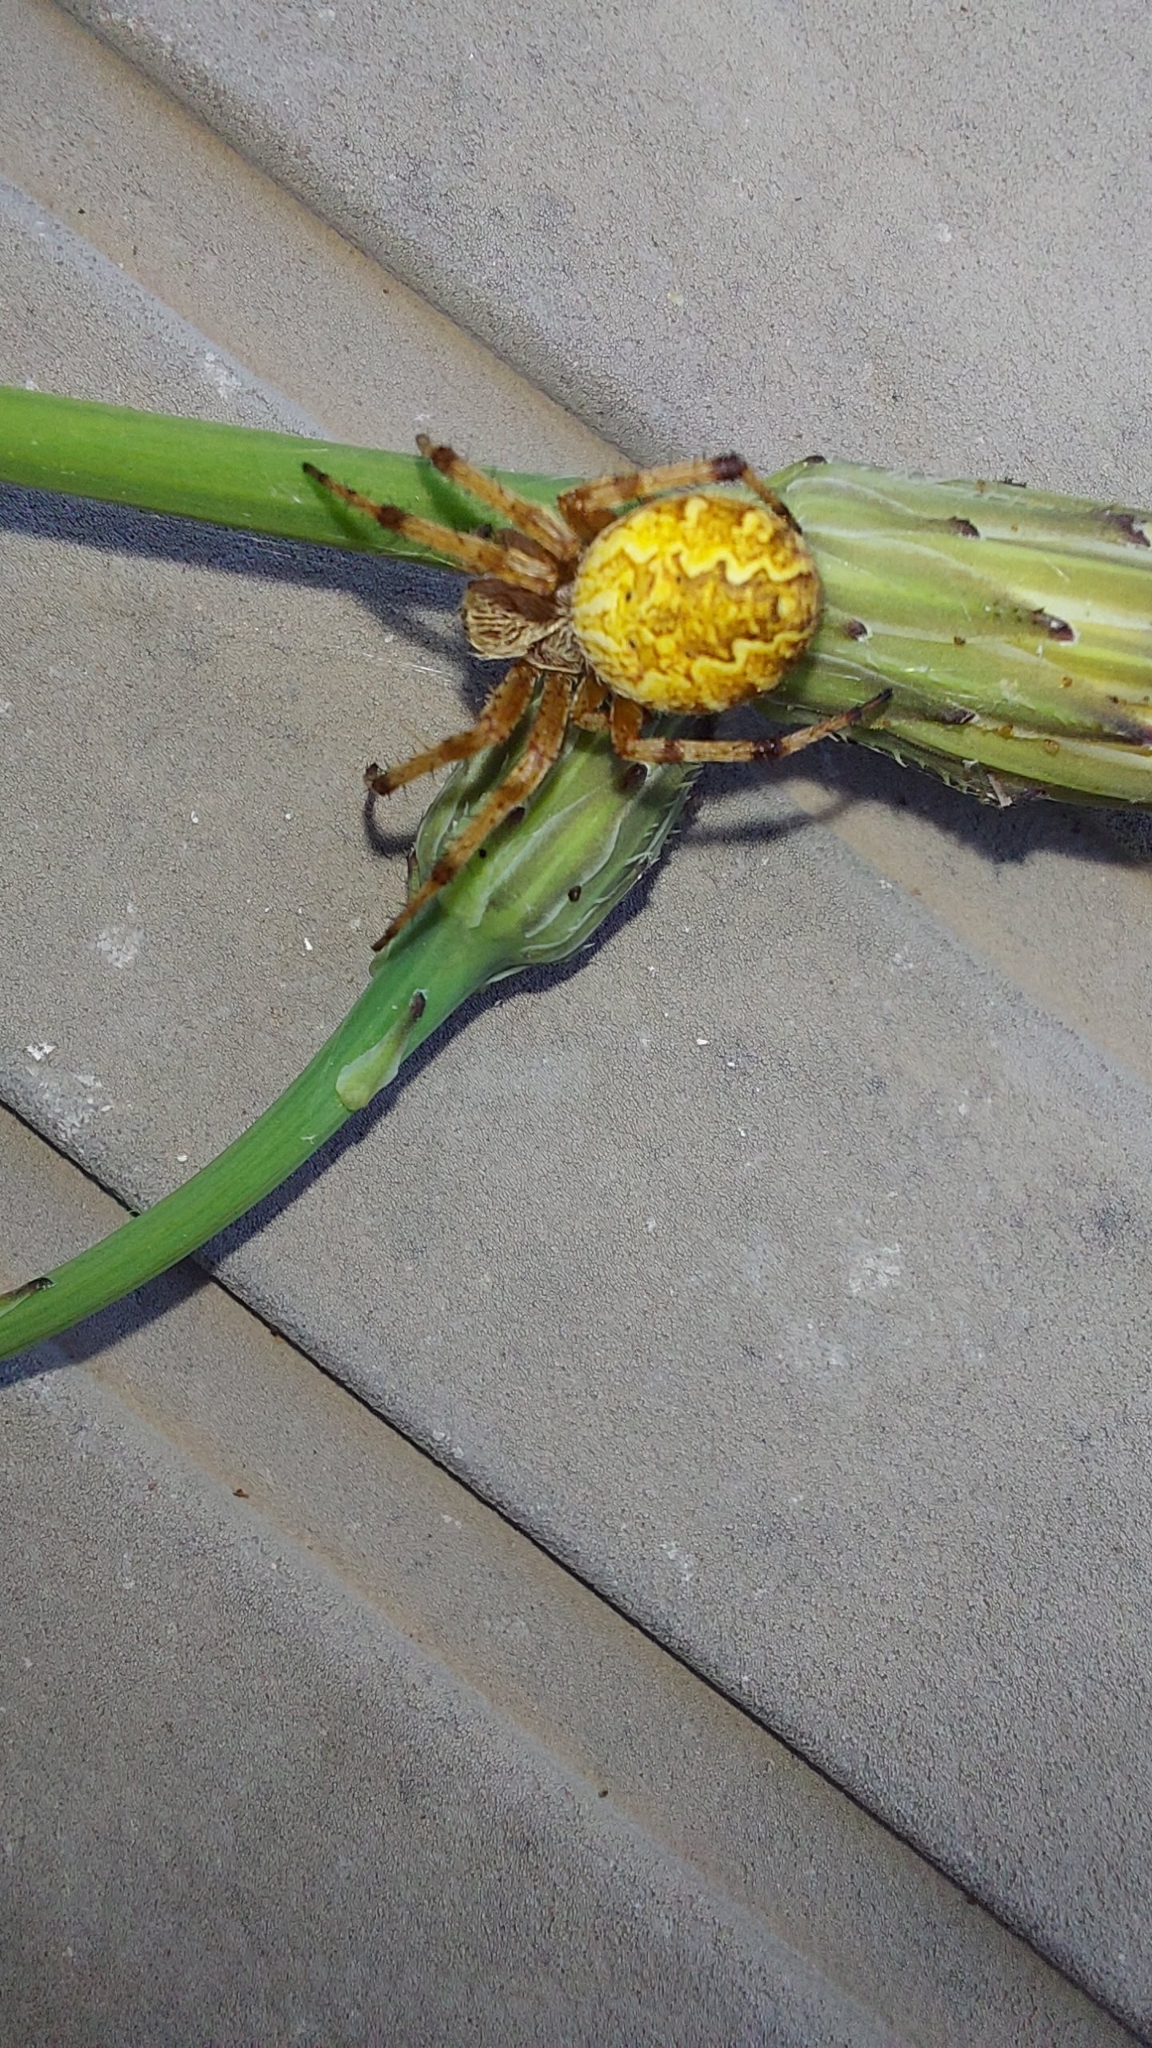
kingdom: Animalia
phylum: Arthropoda
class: Arachnida
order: Araneae
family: Araneidae
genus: Salsa
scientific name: Salsa fuliginata
